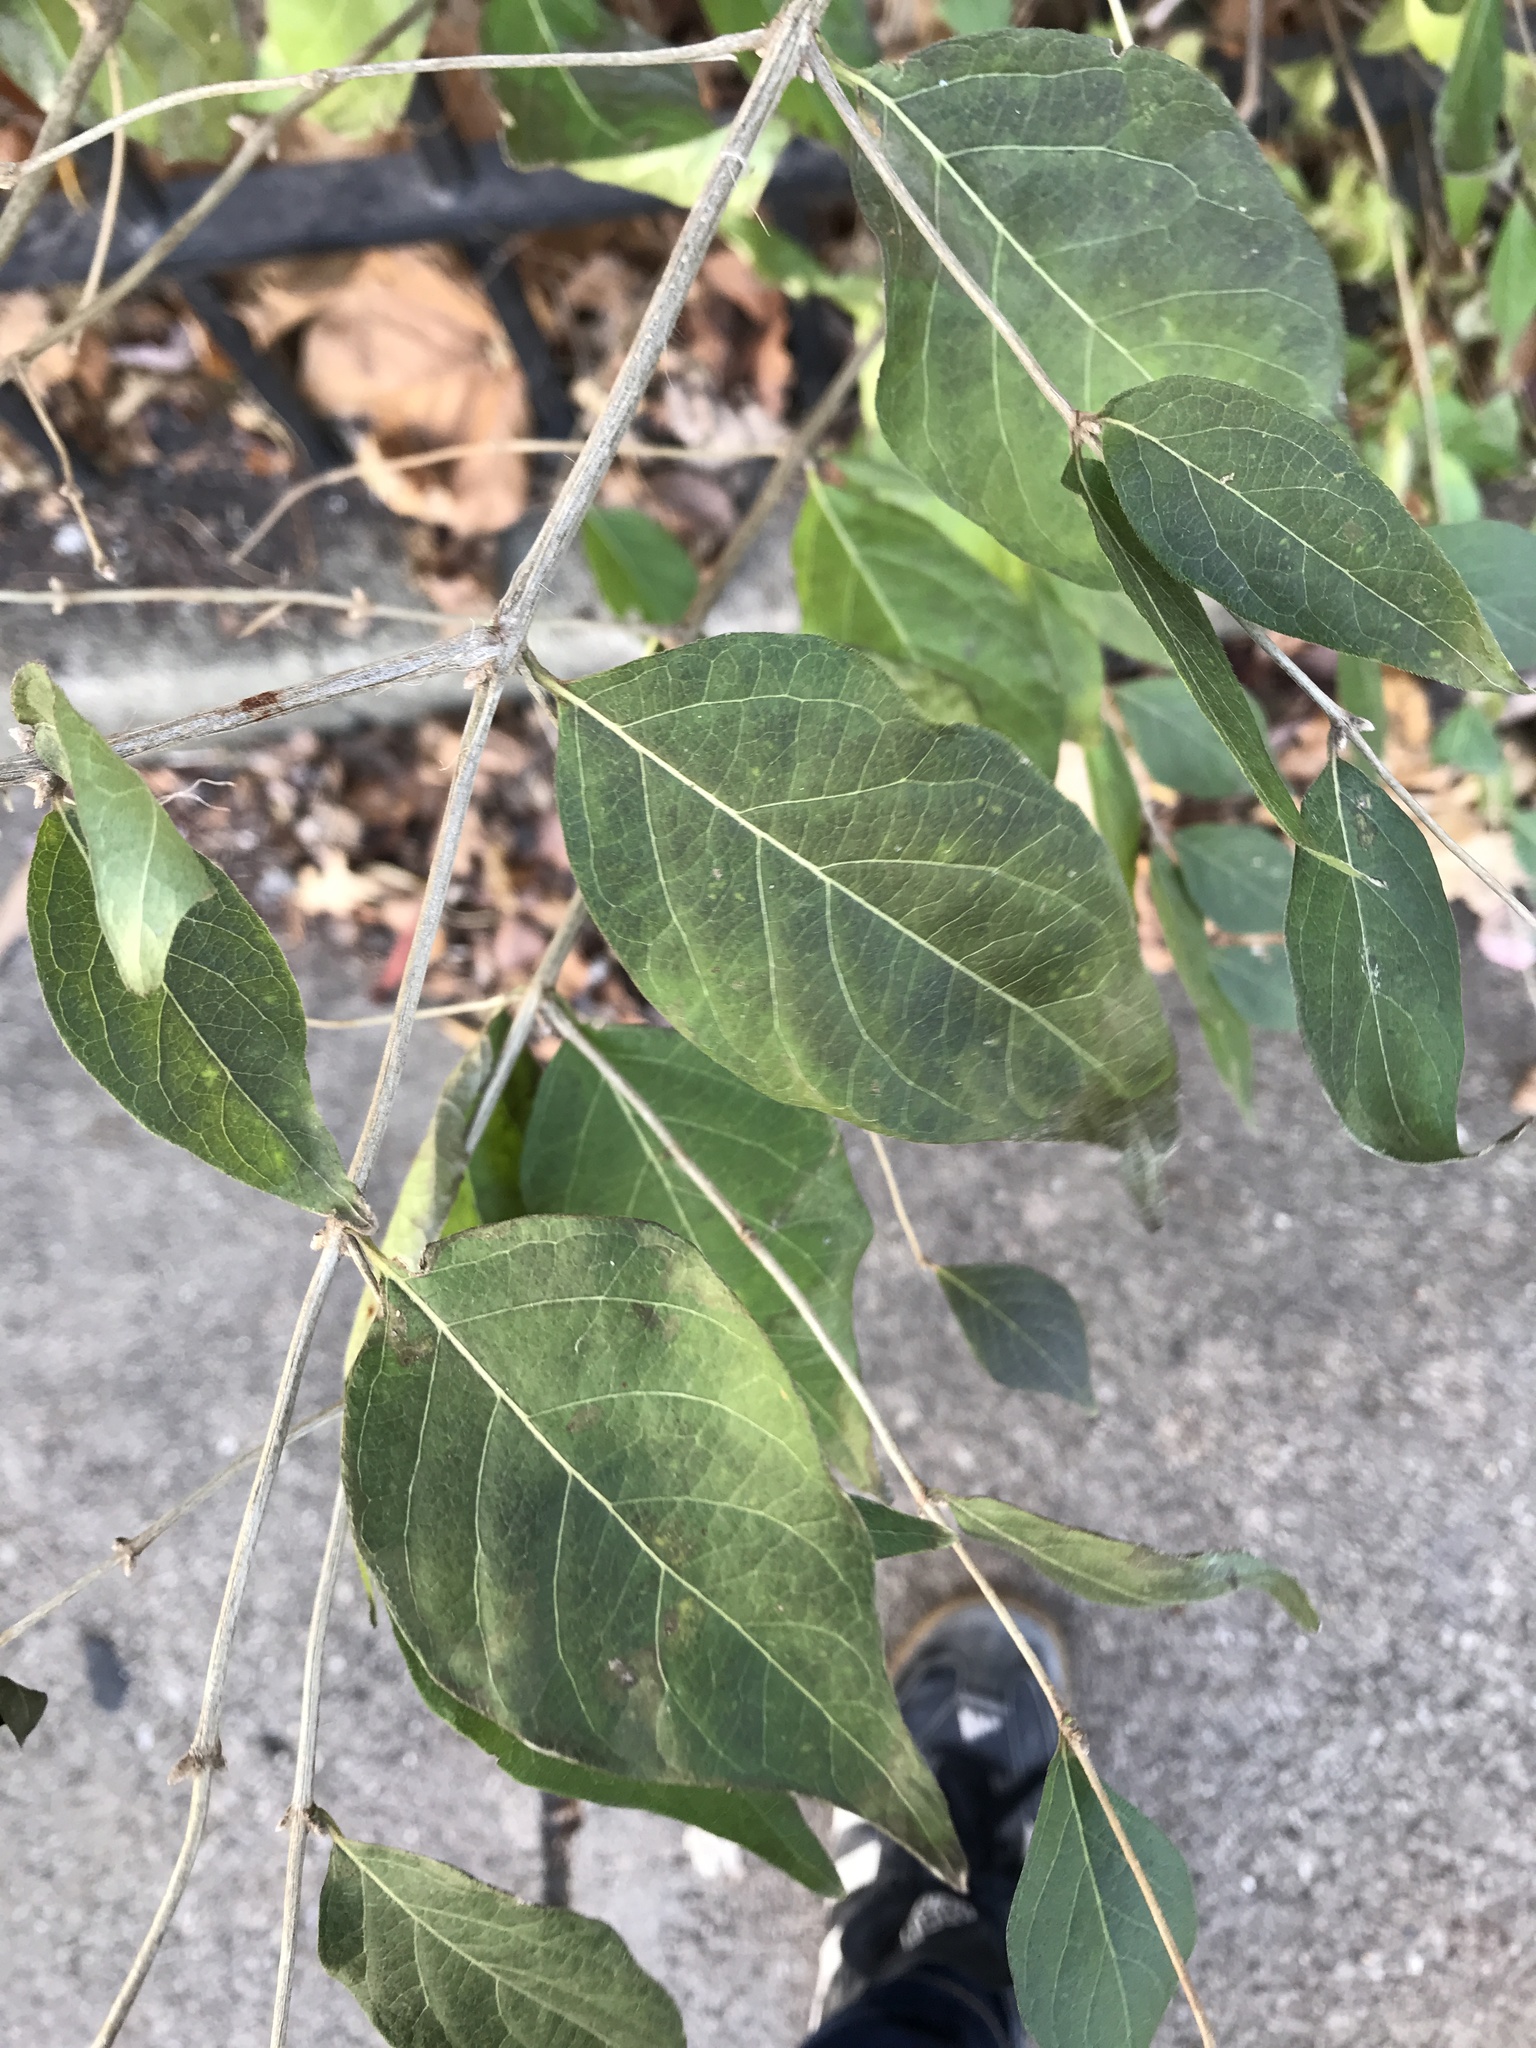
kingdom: Plantae
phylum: Tracheophyta
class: Magnoliopsida
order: Dipsacales
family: Caprifoliaceae
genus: Lonicera
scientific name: Lonicera maackii
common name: Amur honeysuckle
